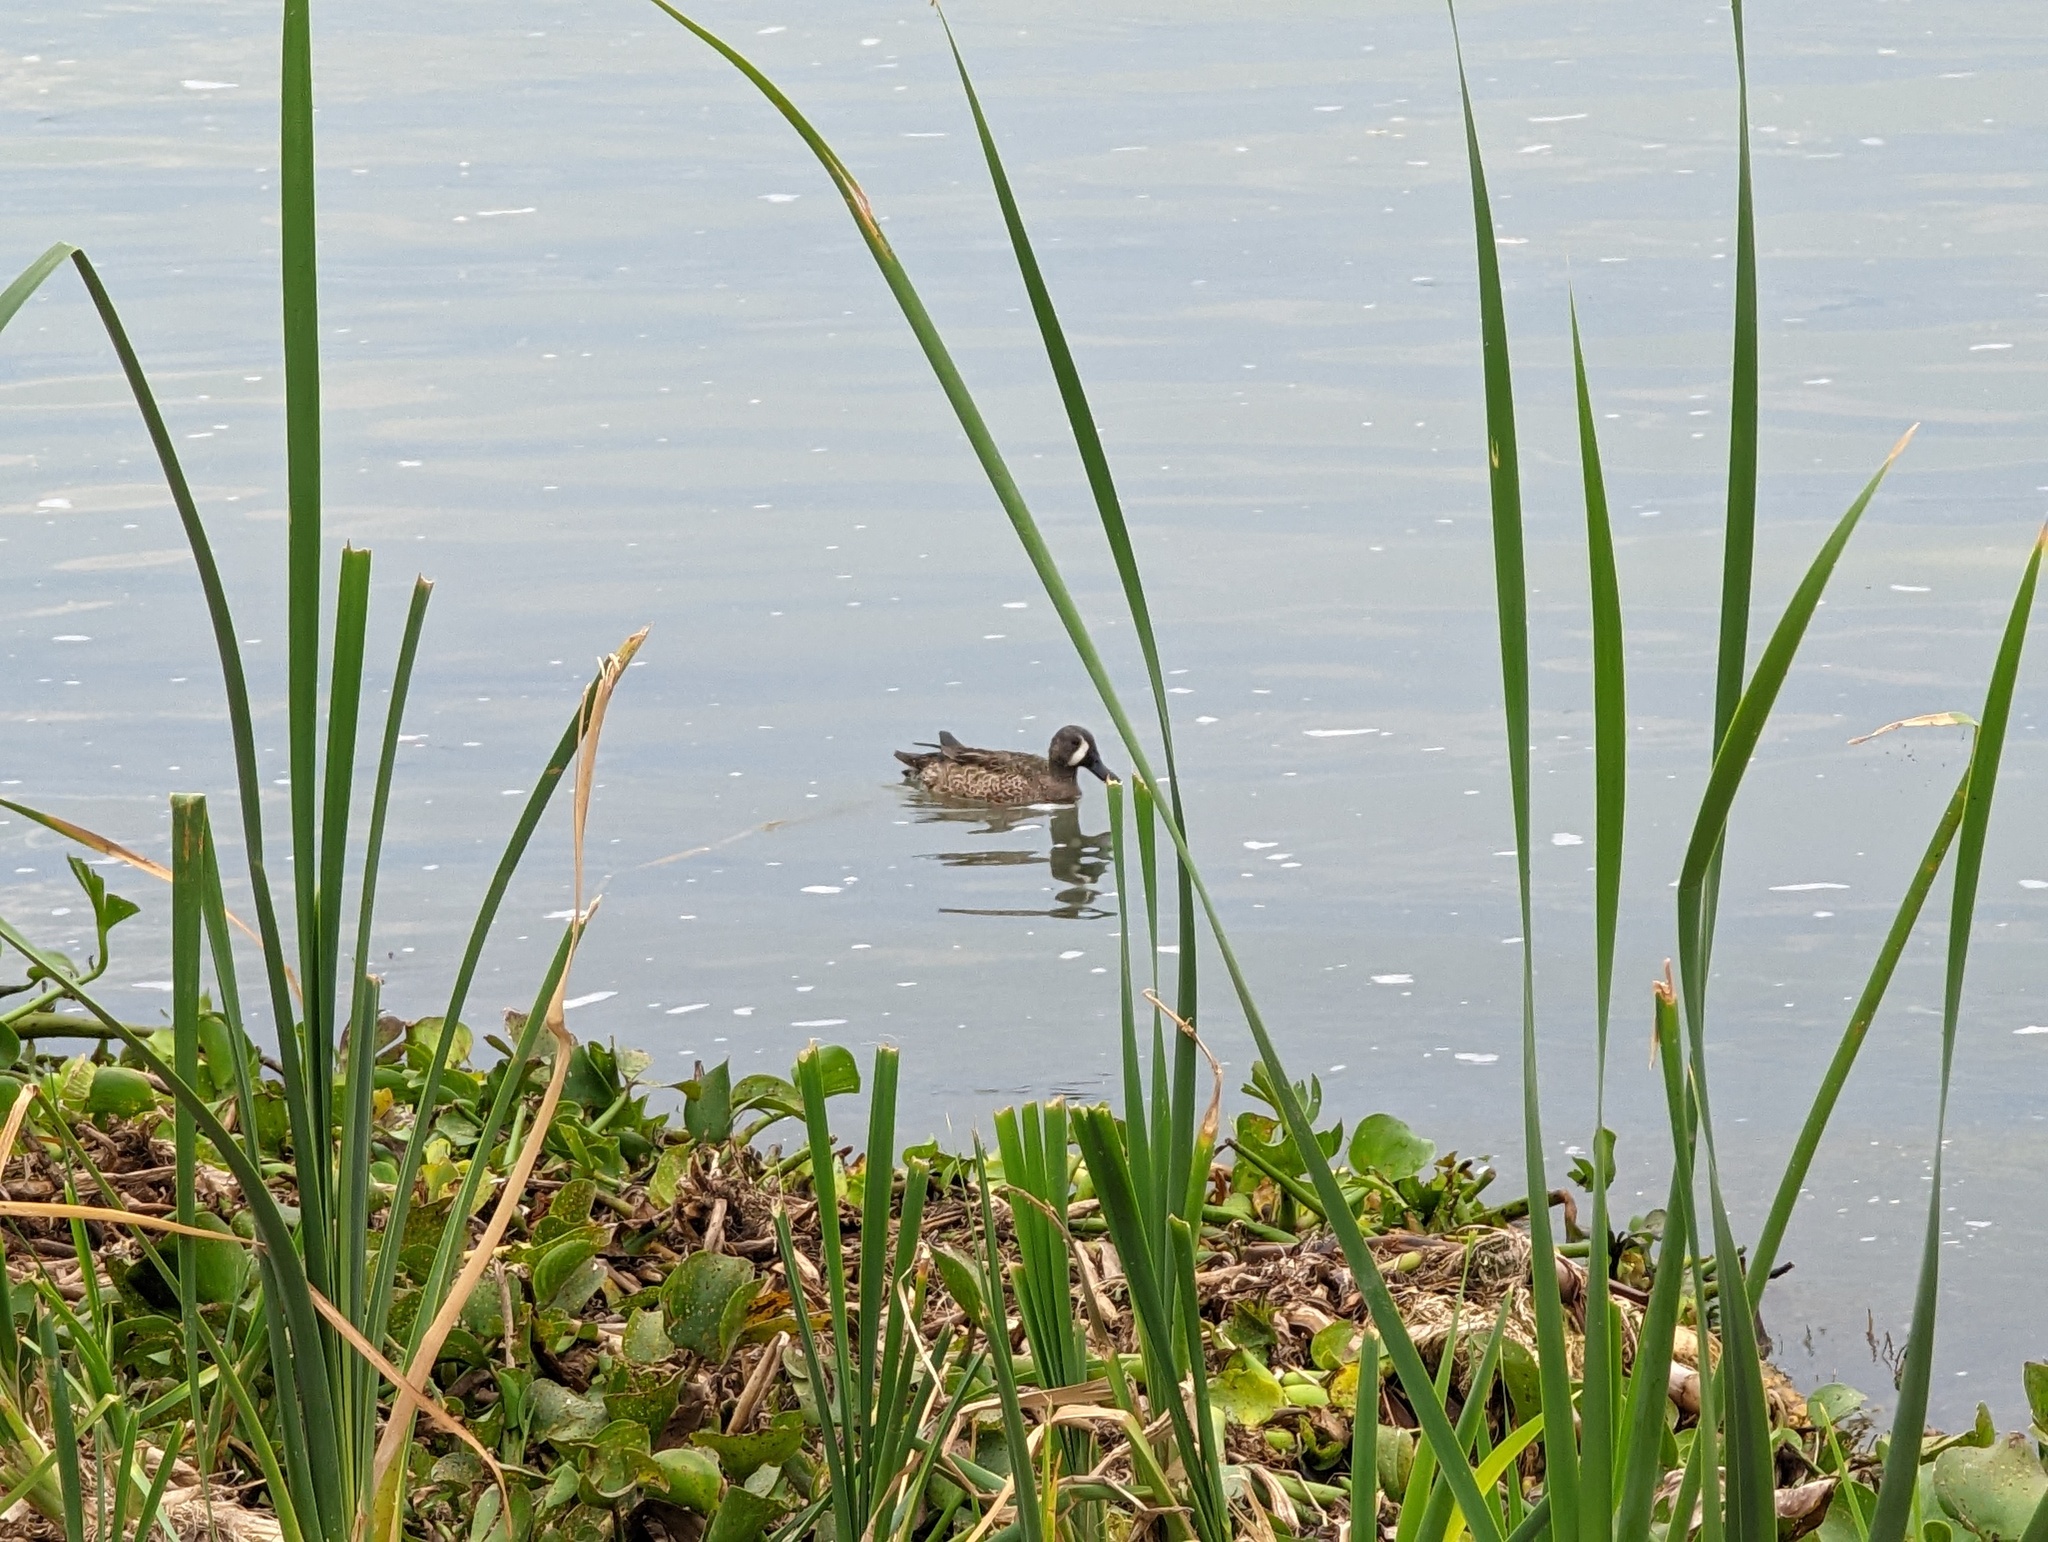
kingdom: Animalia
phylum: Chordata
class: Aves
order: Anseriformes
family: Anatidae
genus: Spatula
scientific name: Spatula discors
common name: Blue-winged teal
